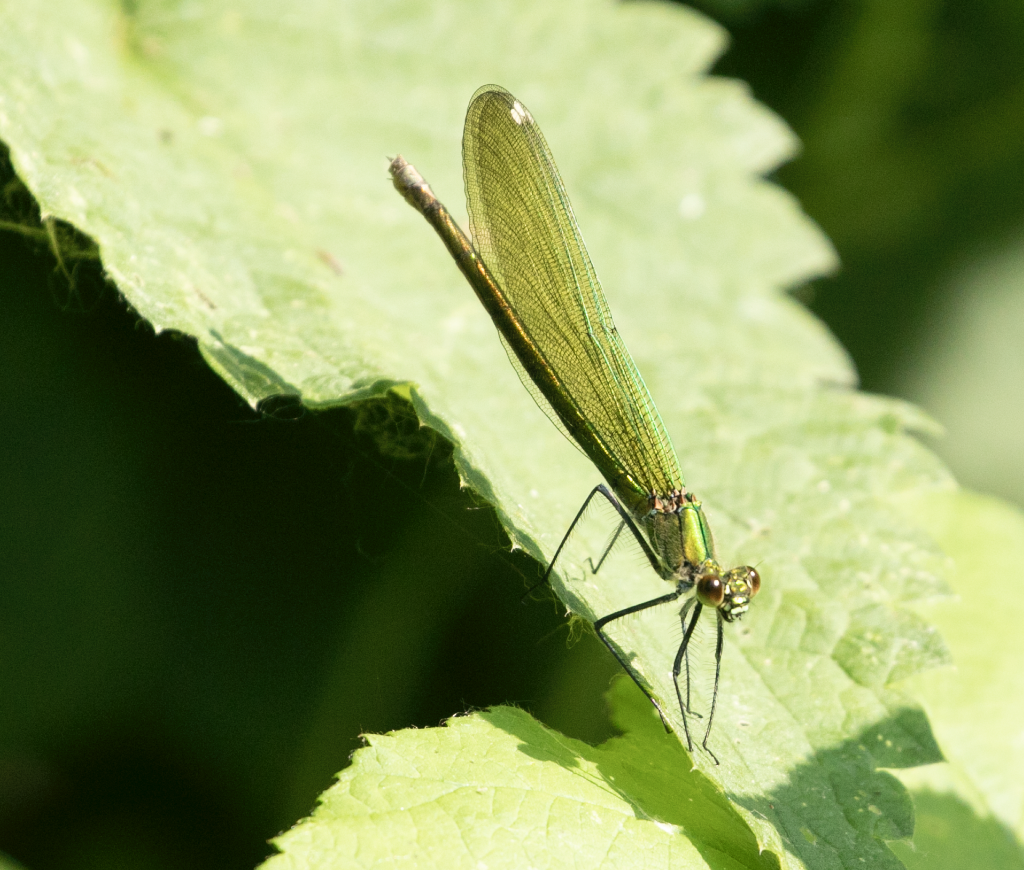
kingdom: Animalia
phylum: Arthropoda
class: Insecta
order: Odonata
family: Calopterygidae
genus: Calopteryx
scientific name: Calopteryx splendens
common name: Banded demoiselle
